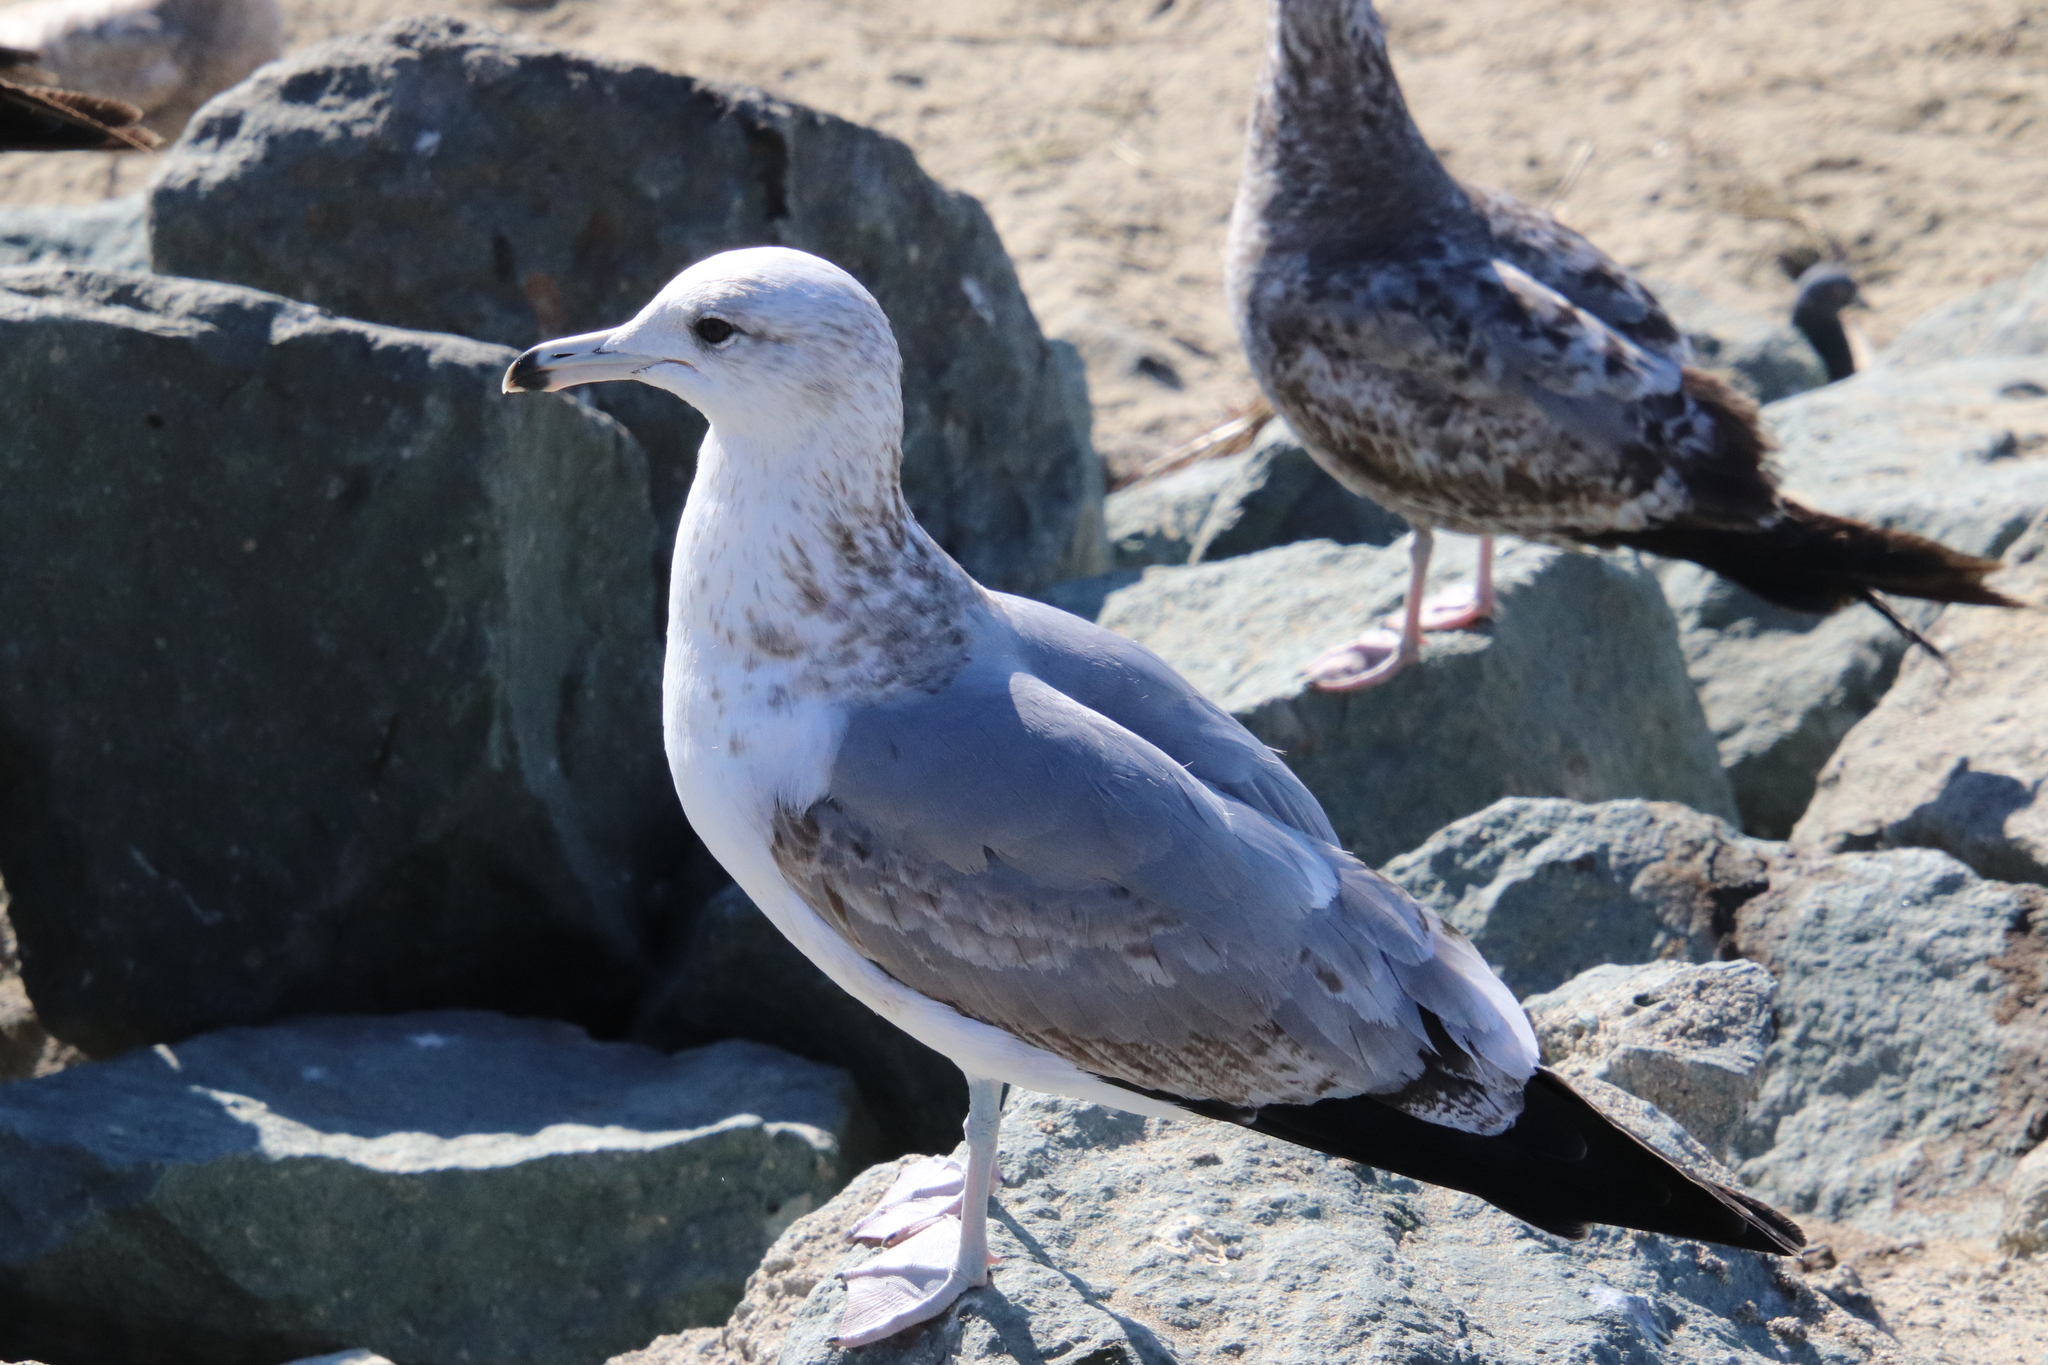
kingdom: Animalia
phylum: Chordata
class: Aves
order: Charadriiformes
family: Laridae
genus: Larus
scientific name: Larus californicus
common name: California gull
